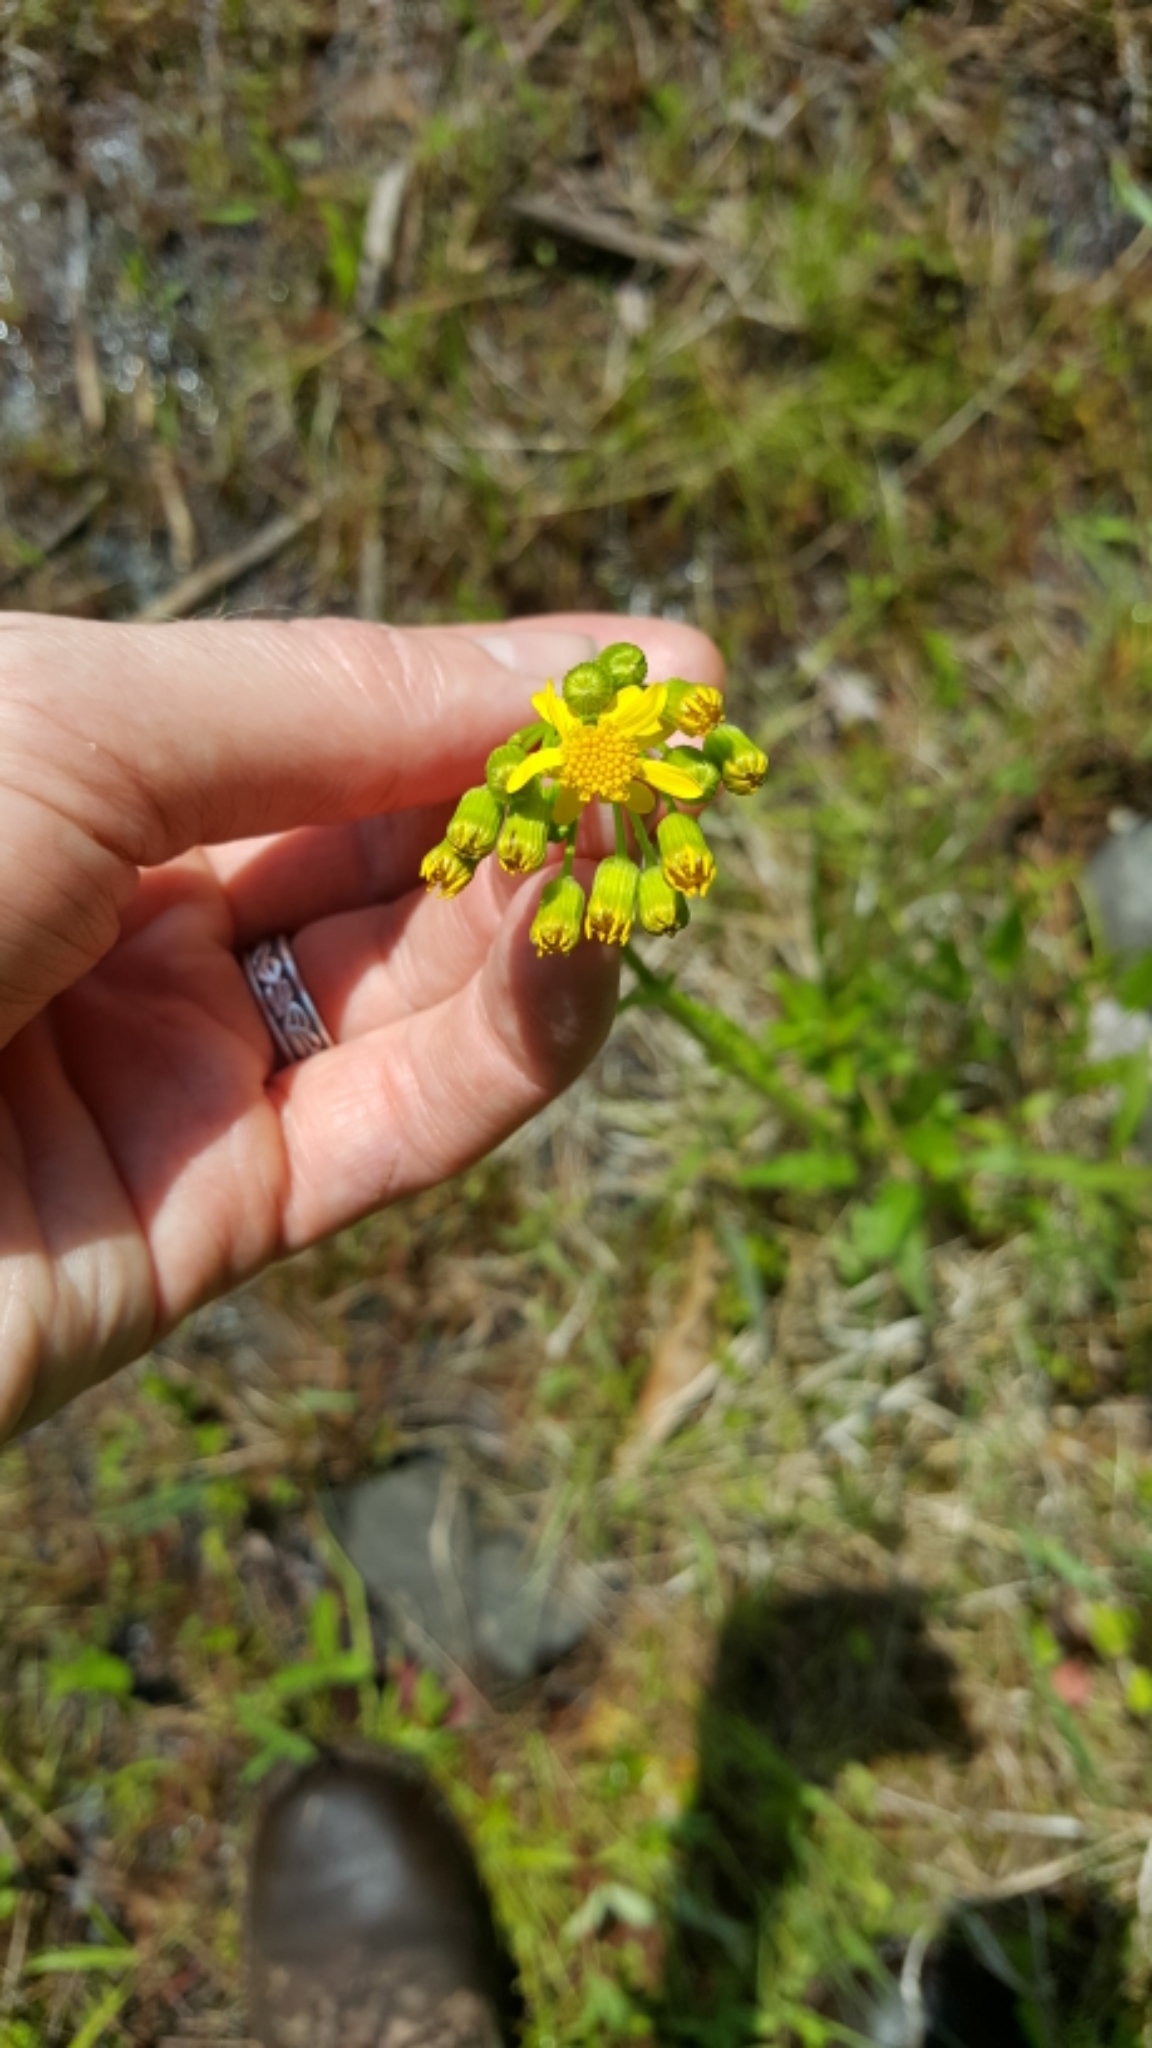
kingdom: Plantae
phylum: Tracheophyta
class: Magnoliopsida
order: Asterales
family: Asteraceae
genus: Packera
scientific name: Packera schweinitziana
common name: Schweinitz's ragwort
